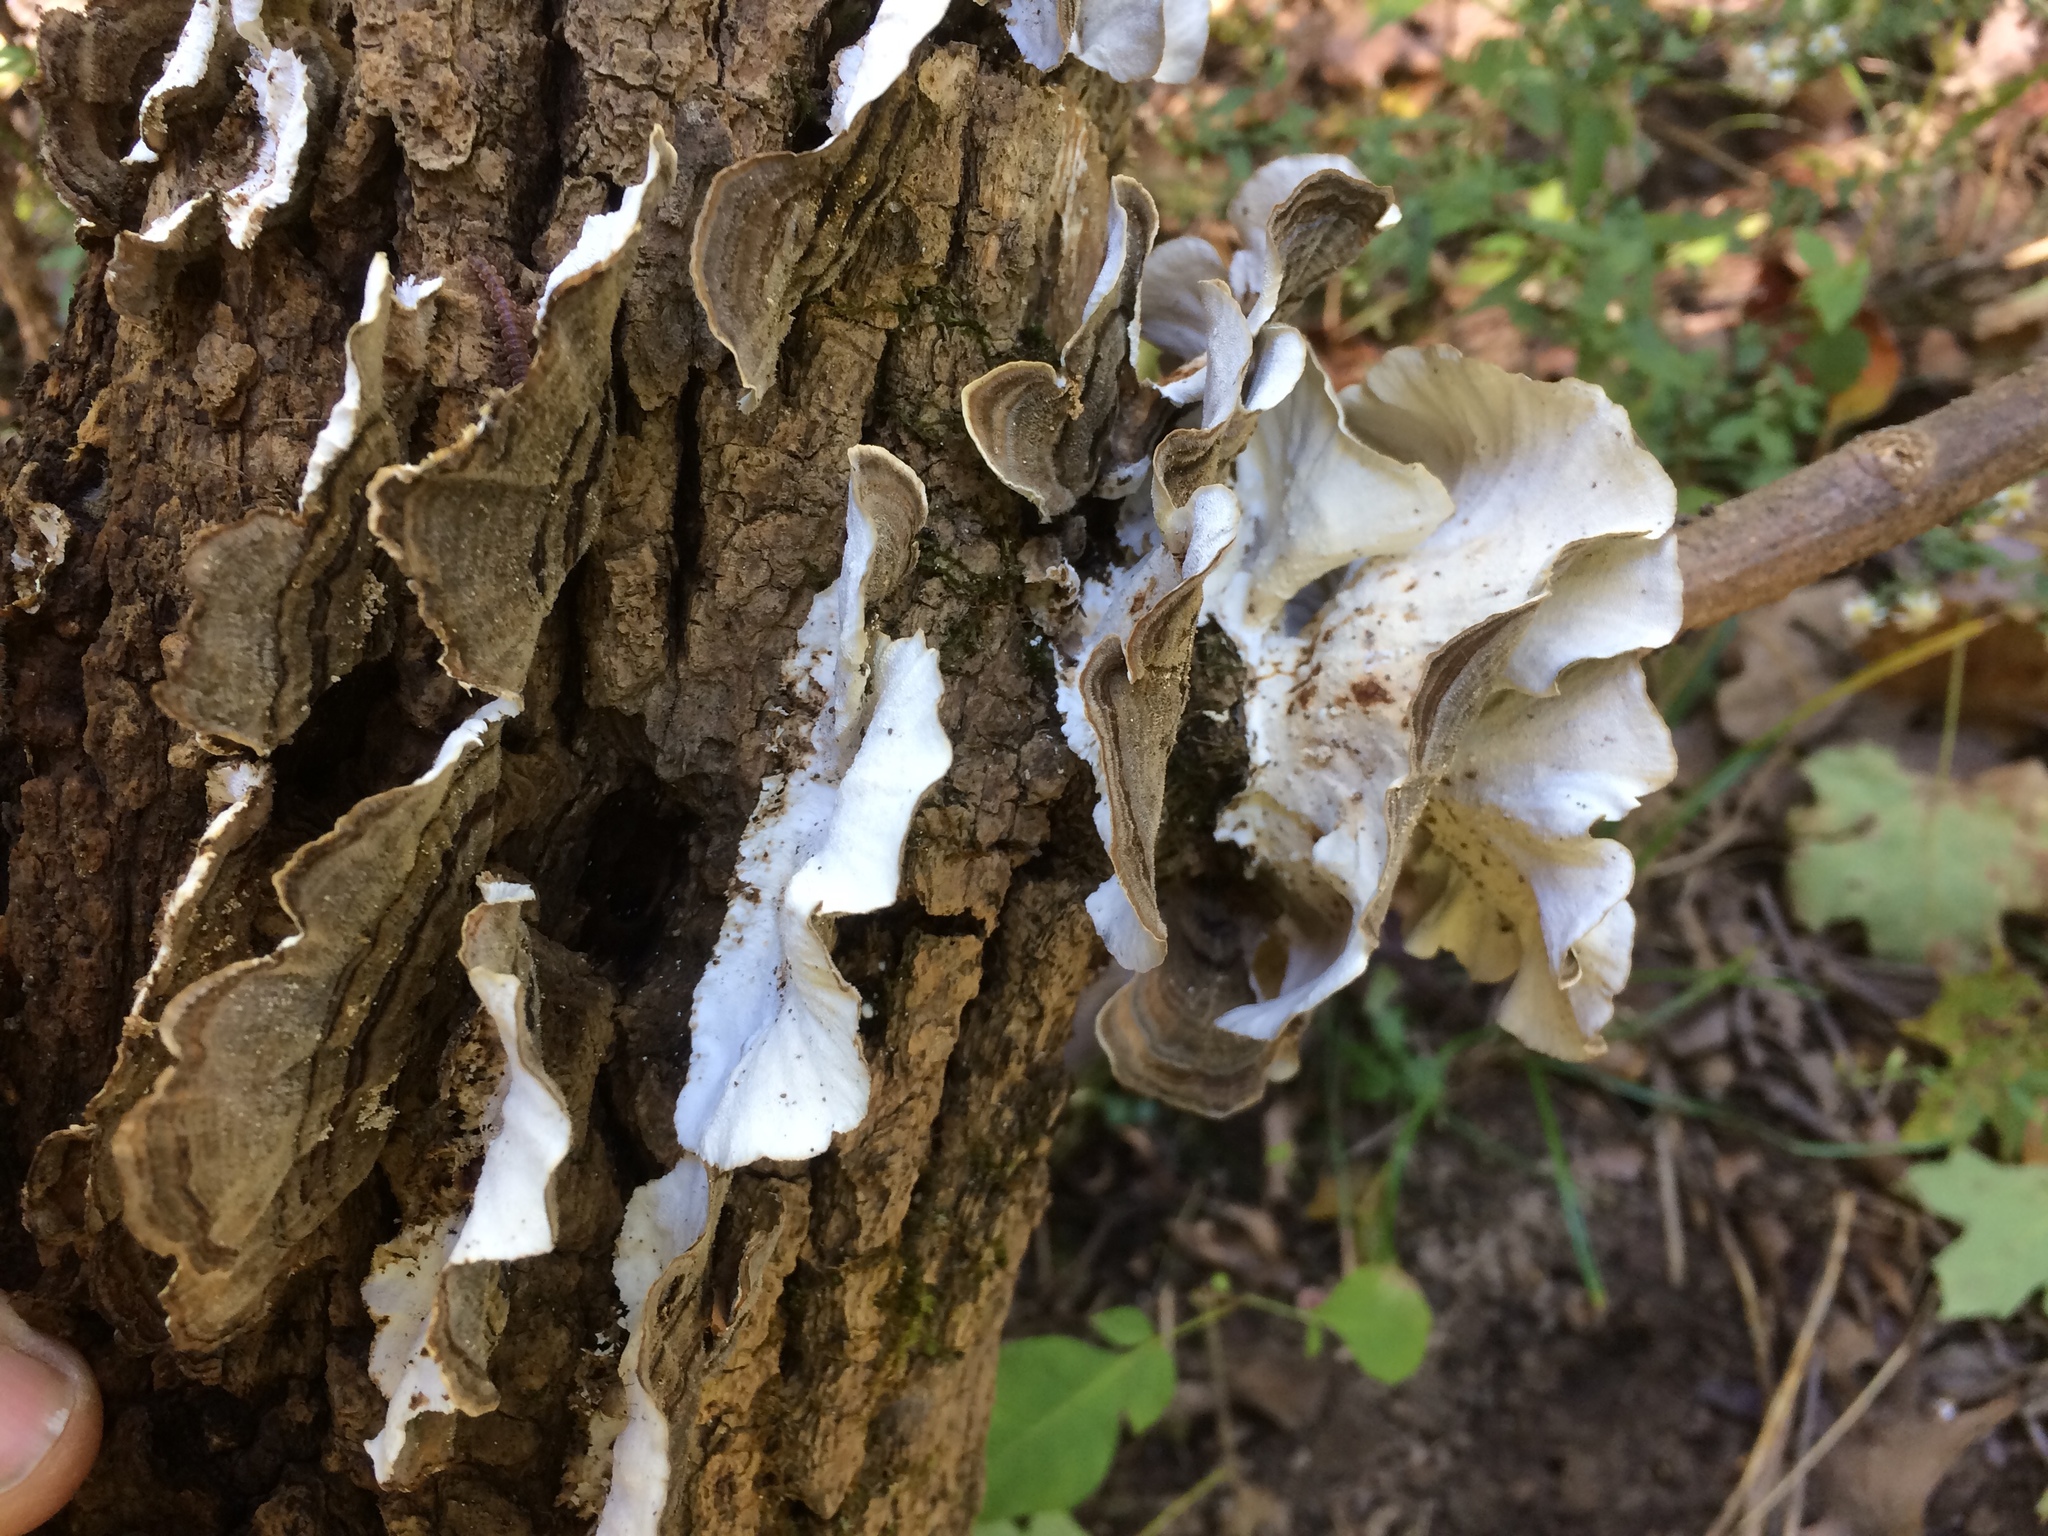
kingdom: Fungi
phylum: Basidiomycota
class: Agaricomycetes
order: Polyporales
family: Polyporaceae
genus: Trametes
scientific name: Trametes versicolor
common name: Turkeytail
